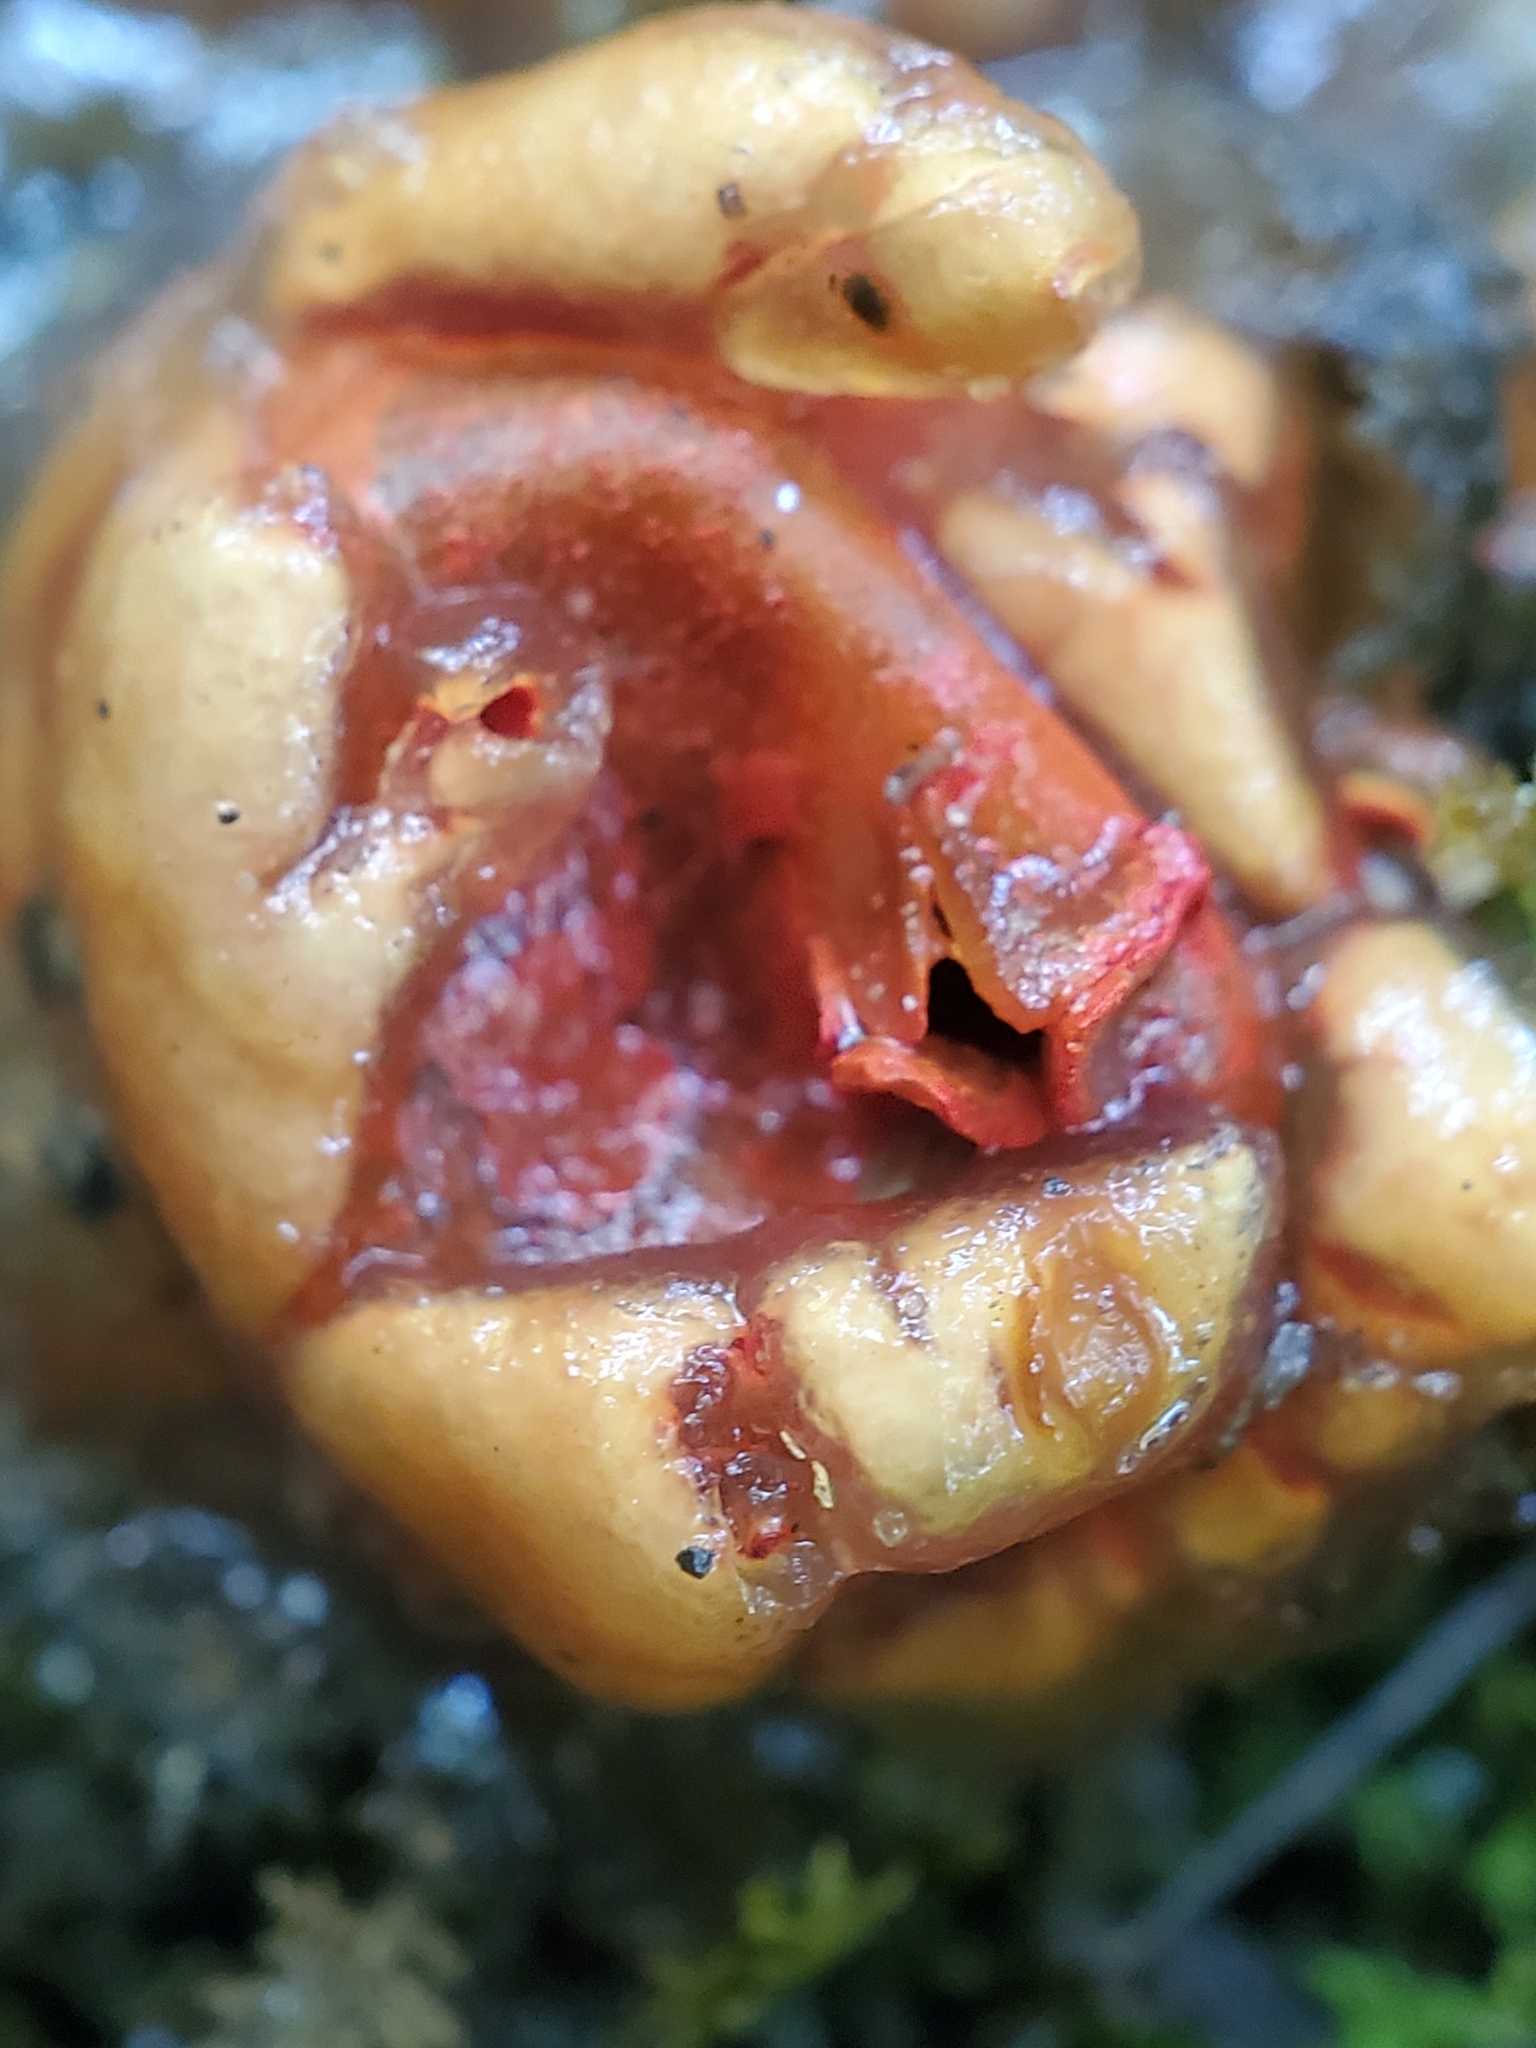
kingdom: Fungi
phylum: Basidiomycota
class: Agaricomycetes
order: Boletales
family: Calostomataceae
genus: Calostoma
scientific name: Calostoma cinnabarinum
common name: Stalked puffball-in-aspic
